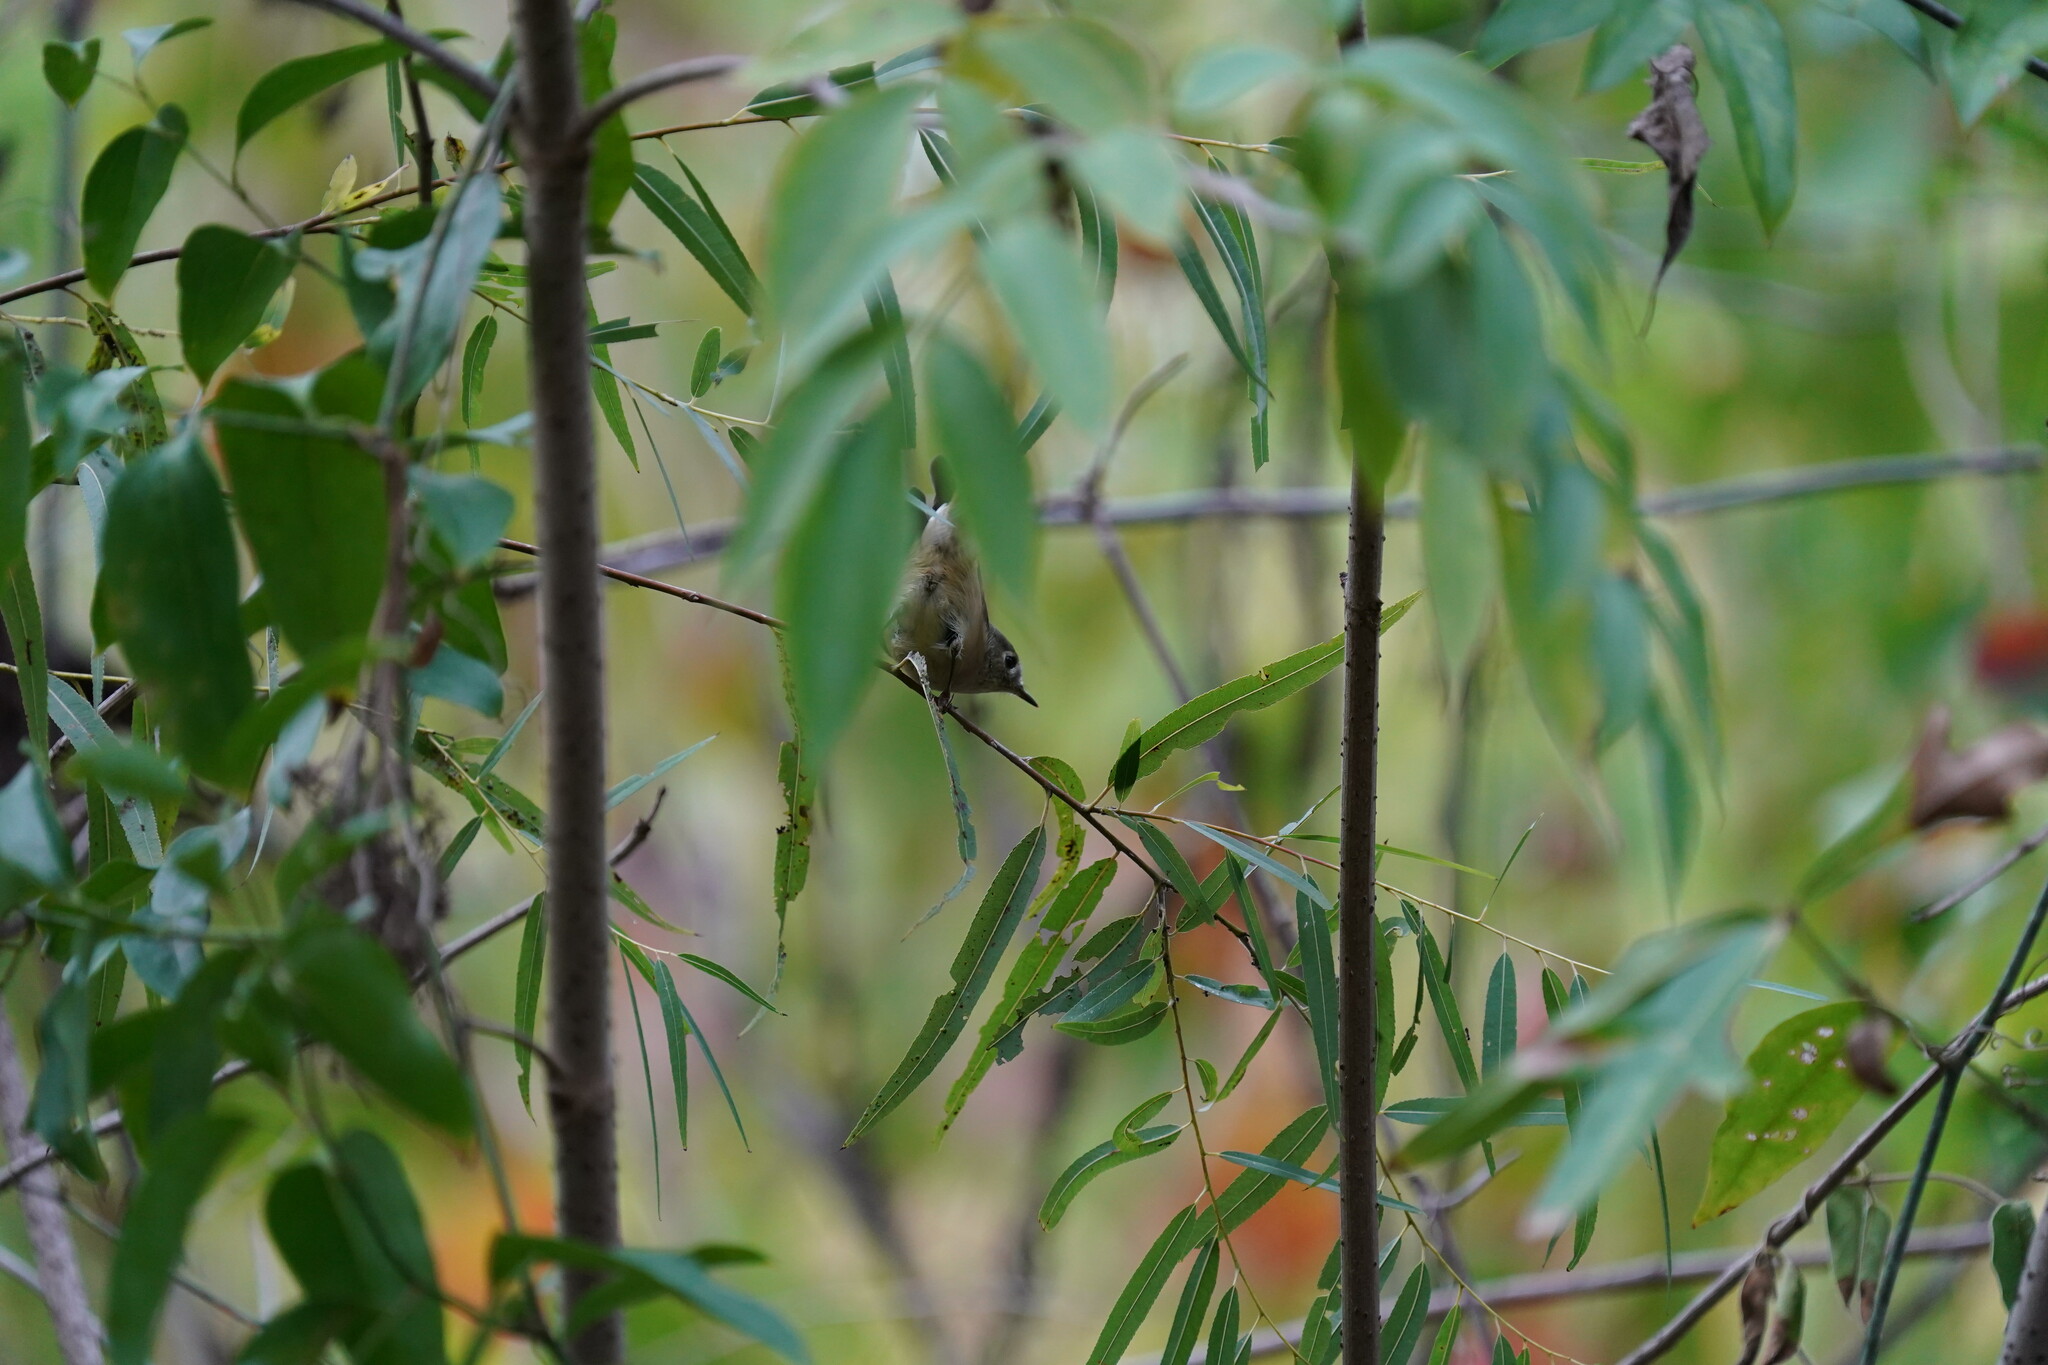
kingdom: Animalia
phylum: Chordata
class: Aves
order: Passeriformes
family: Regulidae
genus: Regulus
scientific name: Regulus calendula
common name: Ruby-crowned kinglet
